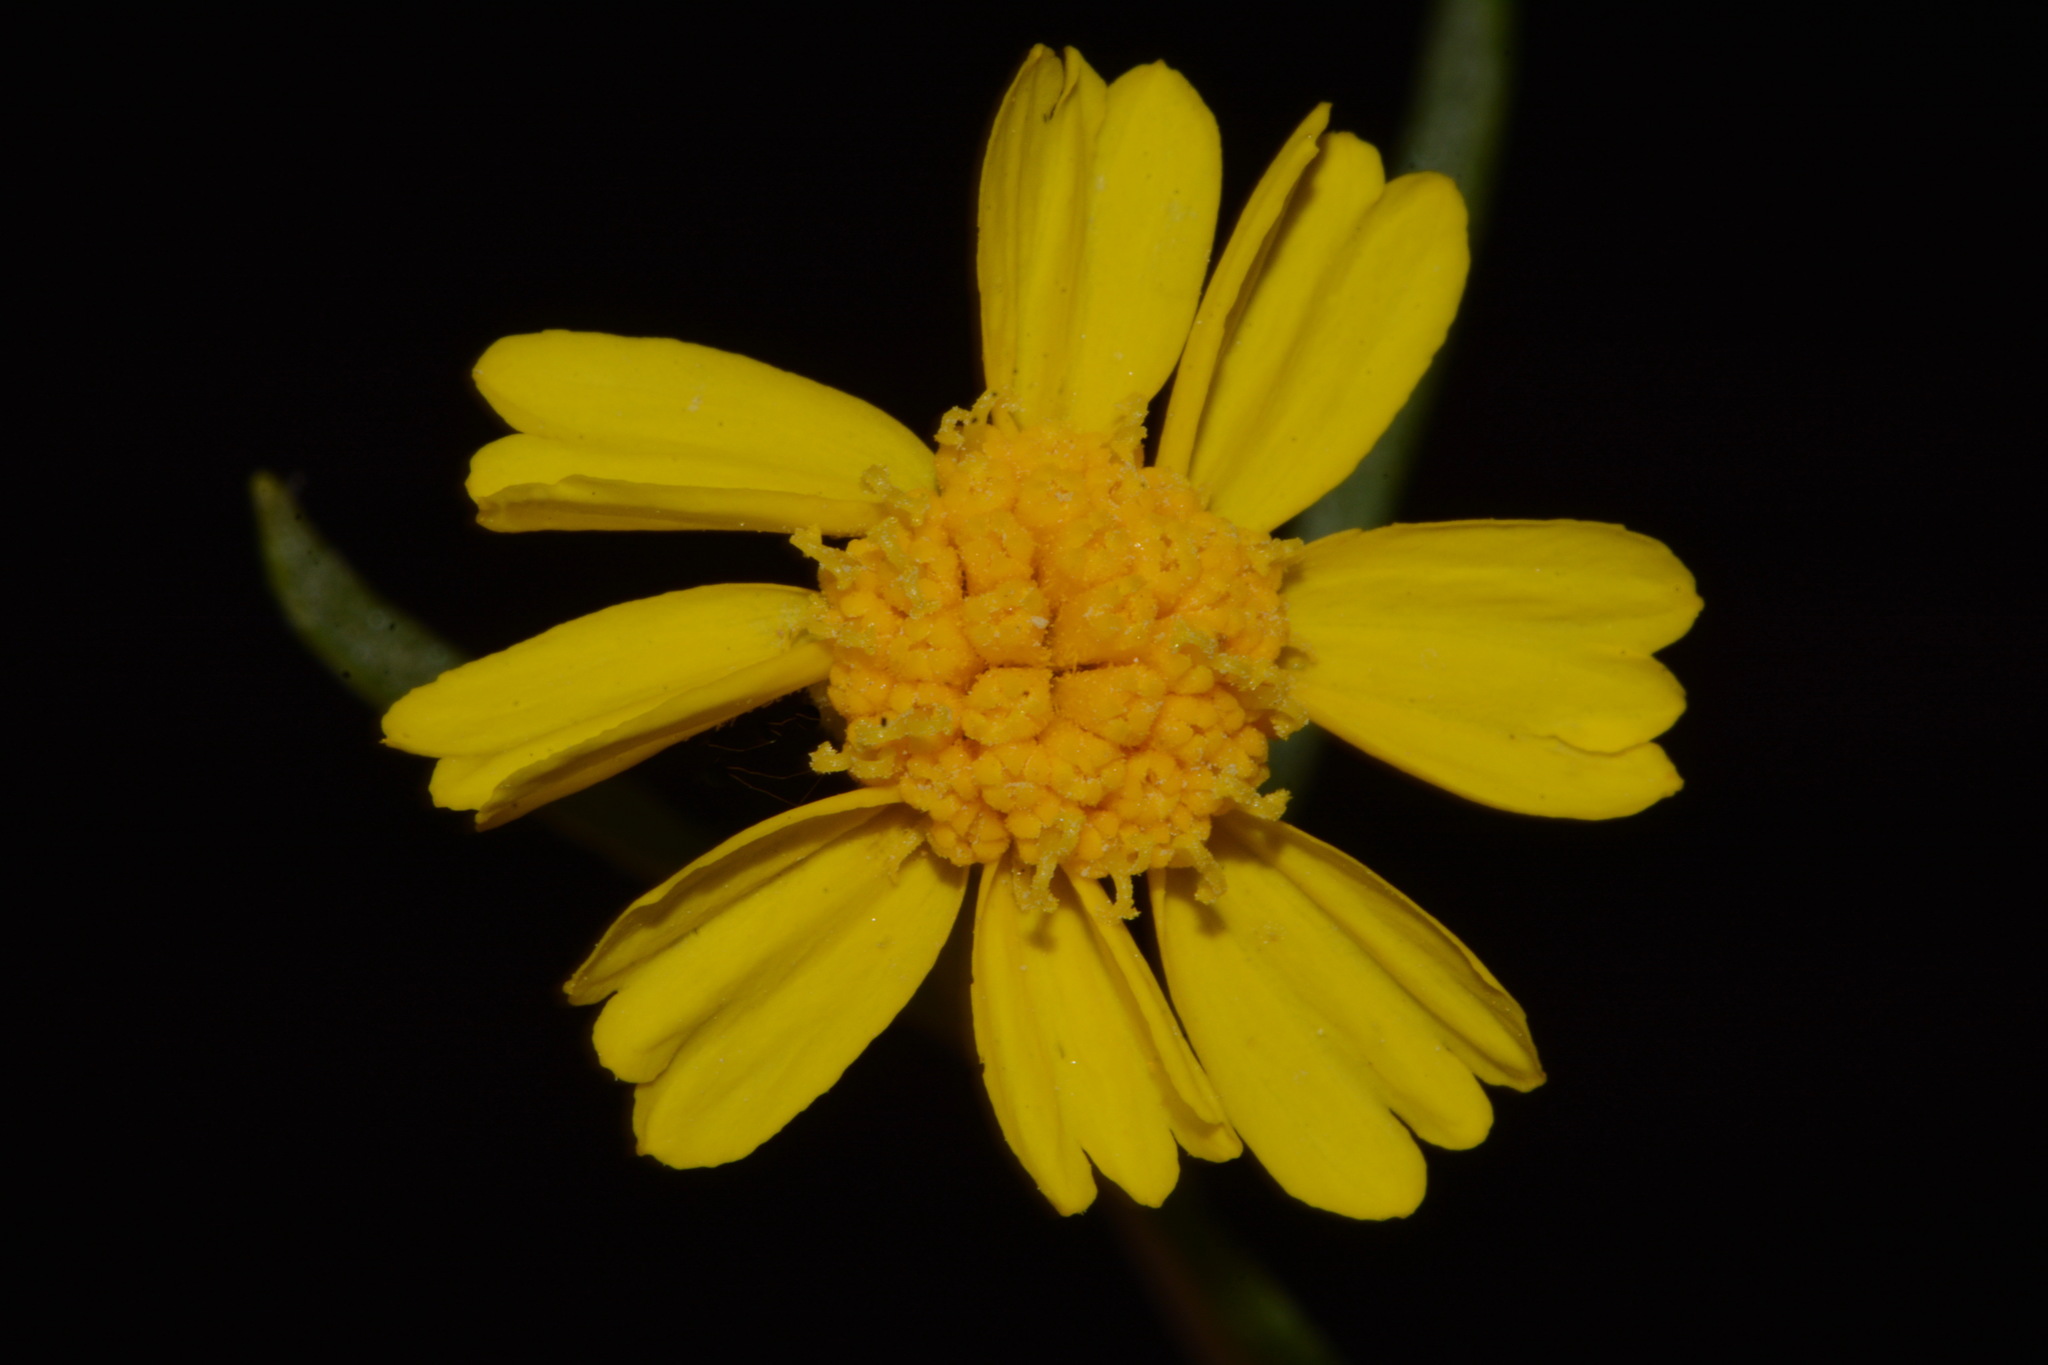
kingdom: Plantae
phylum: Tracheophyta
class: Magnoliopsida
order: Asterales
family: Asteraceae
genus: Hymenoxys
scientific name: Hymenoxys richardsonii
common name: Pingue rubberweed
